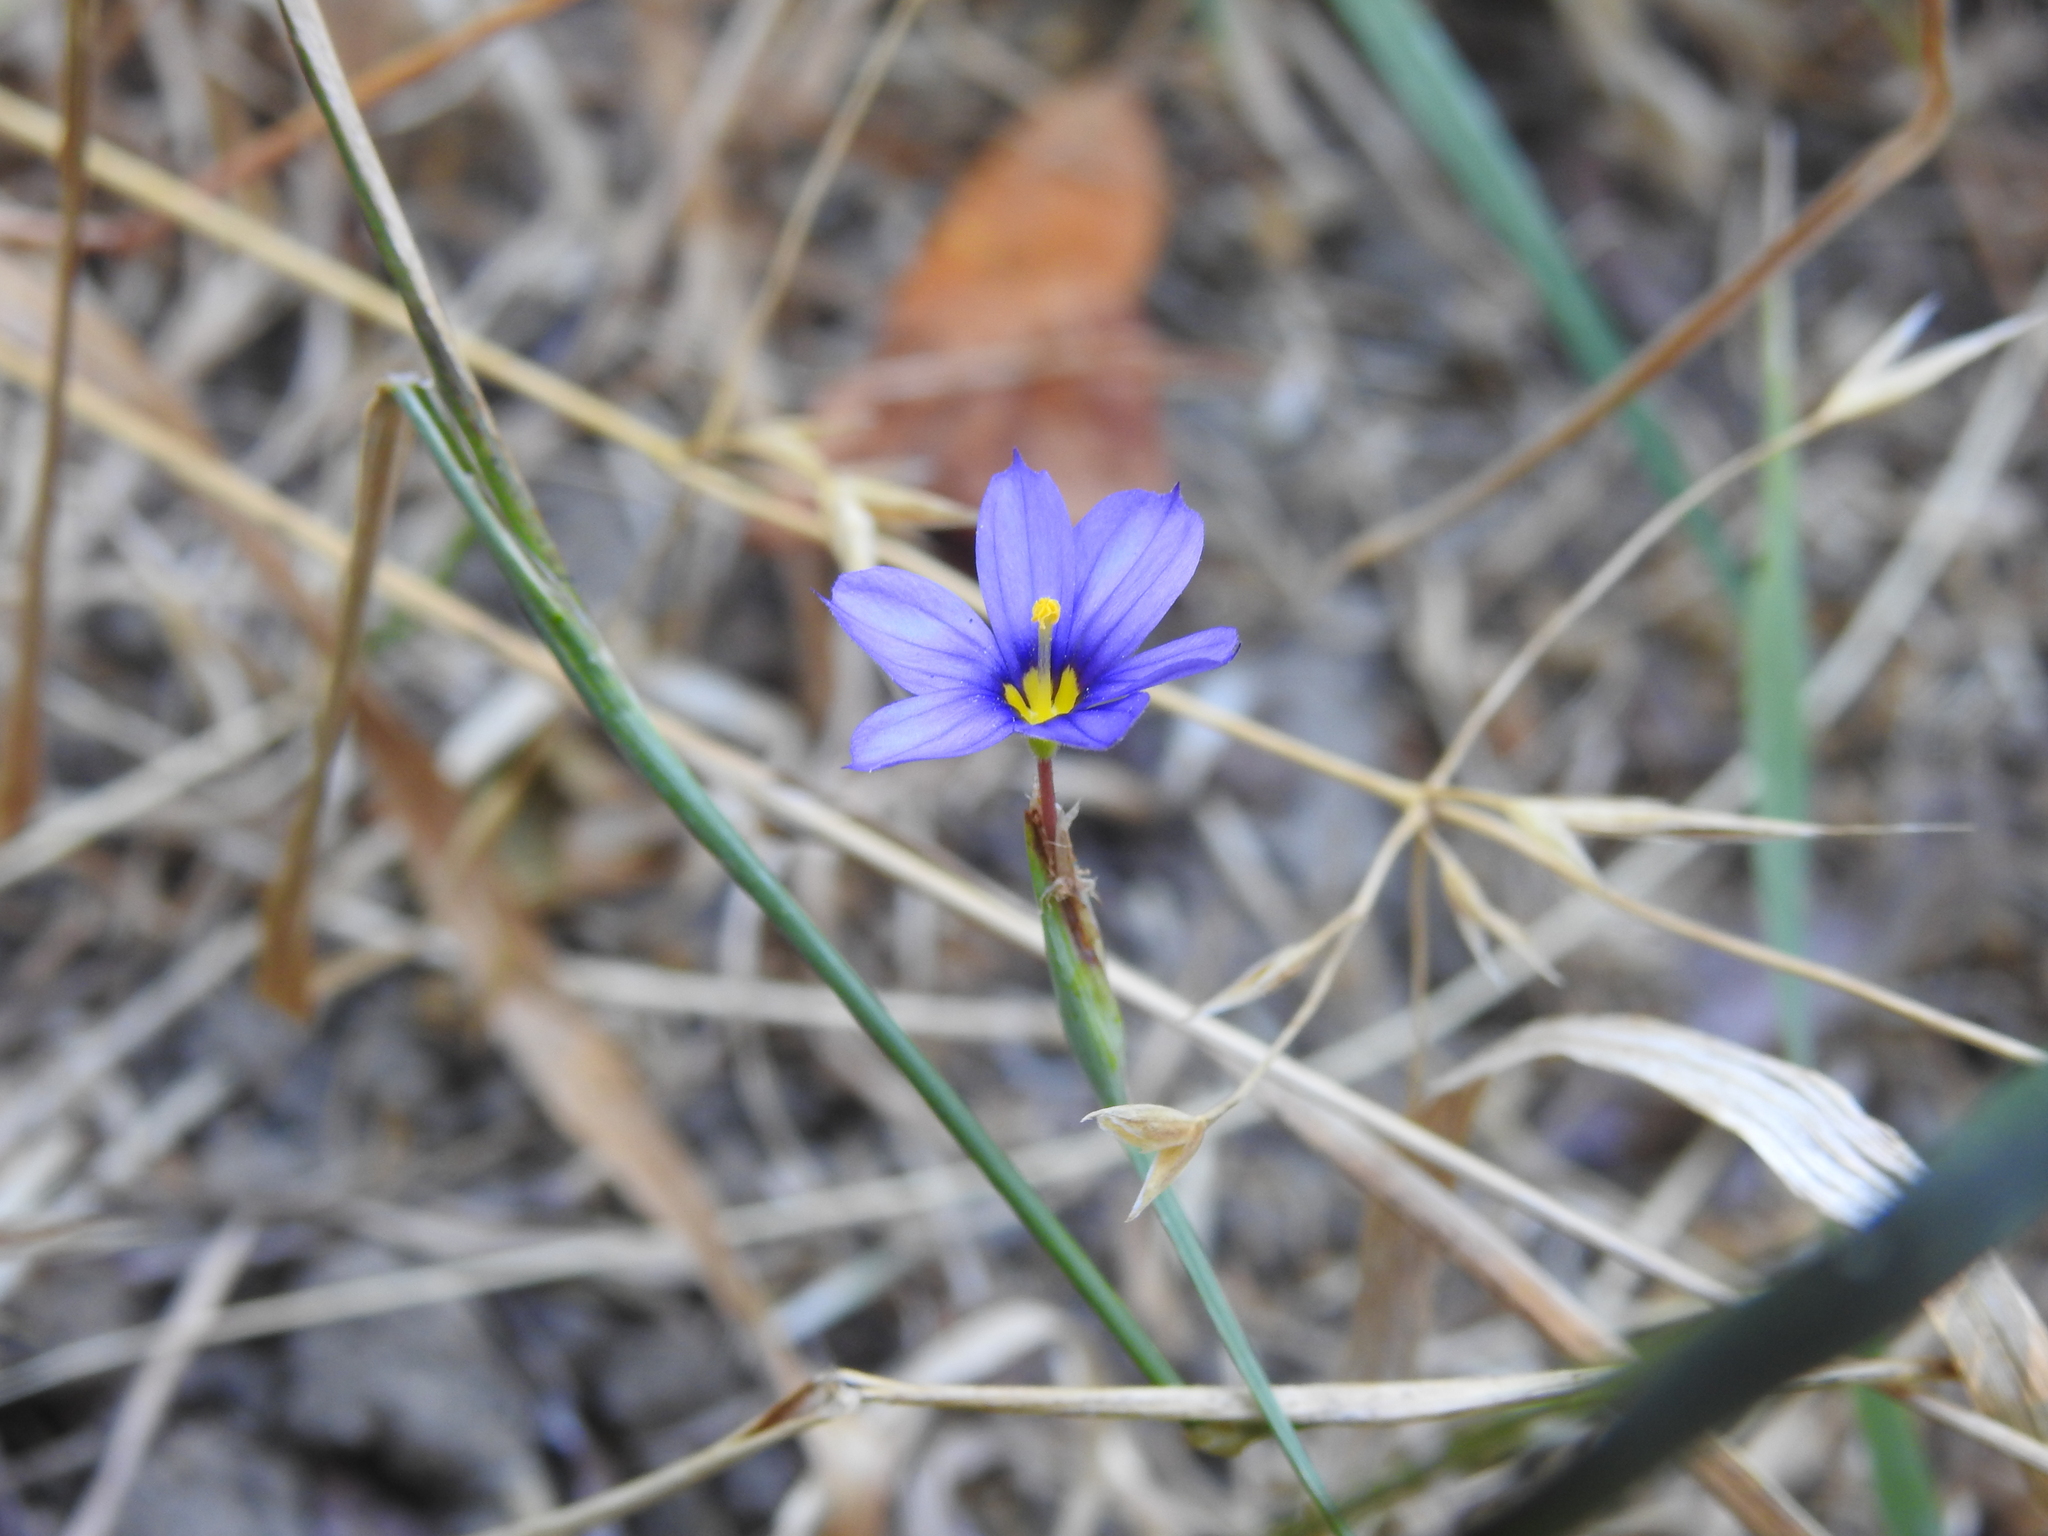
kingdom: Plantae
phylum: Tracheophyta
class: Liliopsida
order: Asparagales
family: Iridaceae
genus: Sisyrinchium
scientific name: Sisyrinchium bellum
